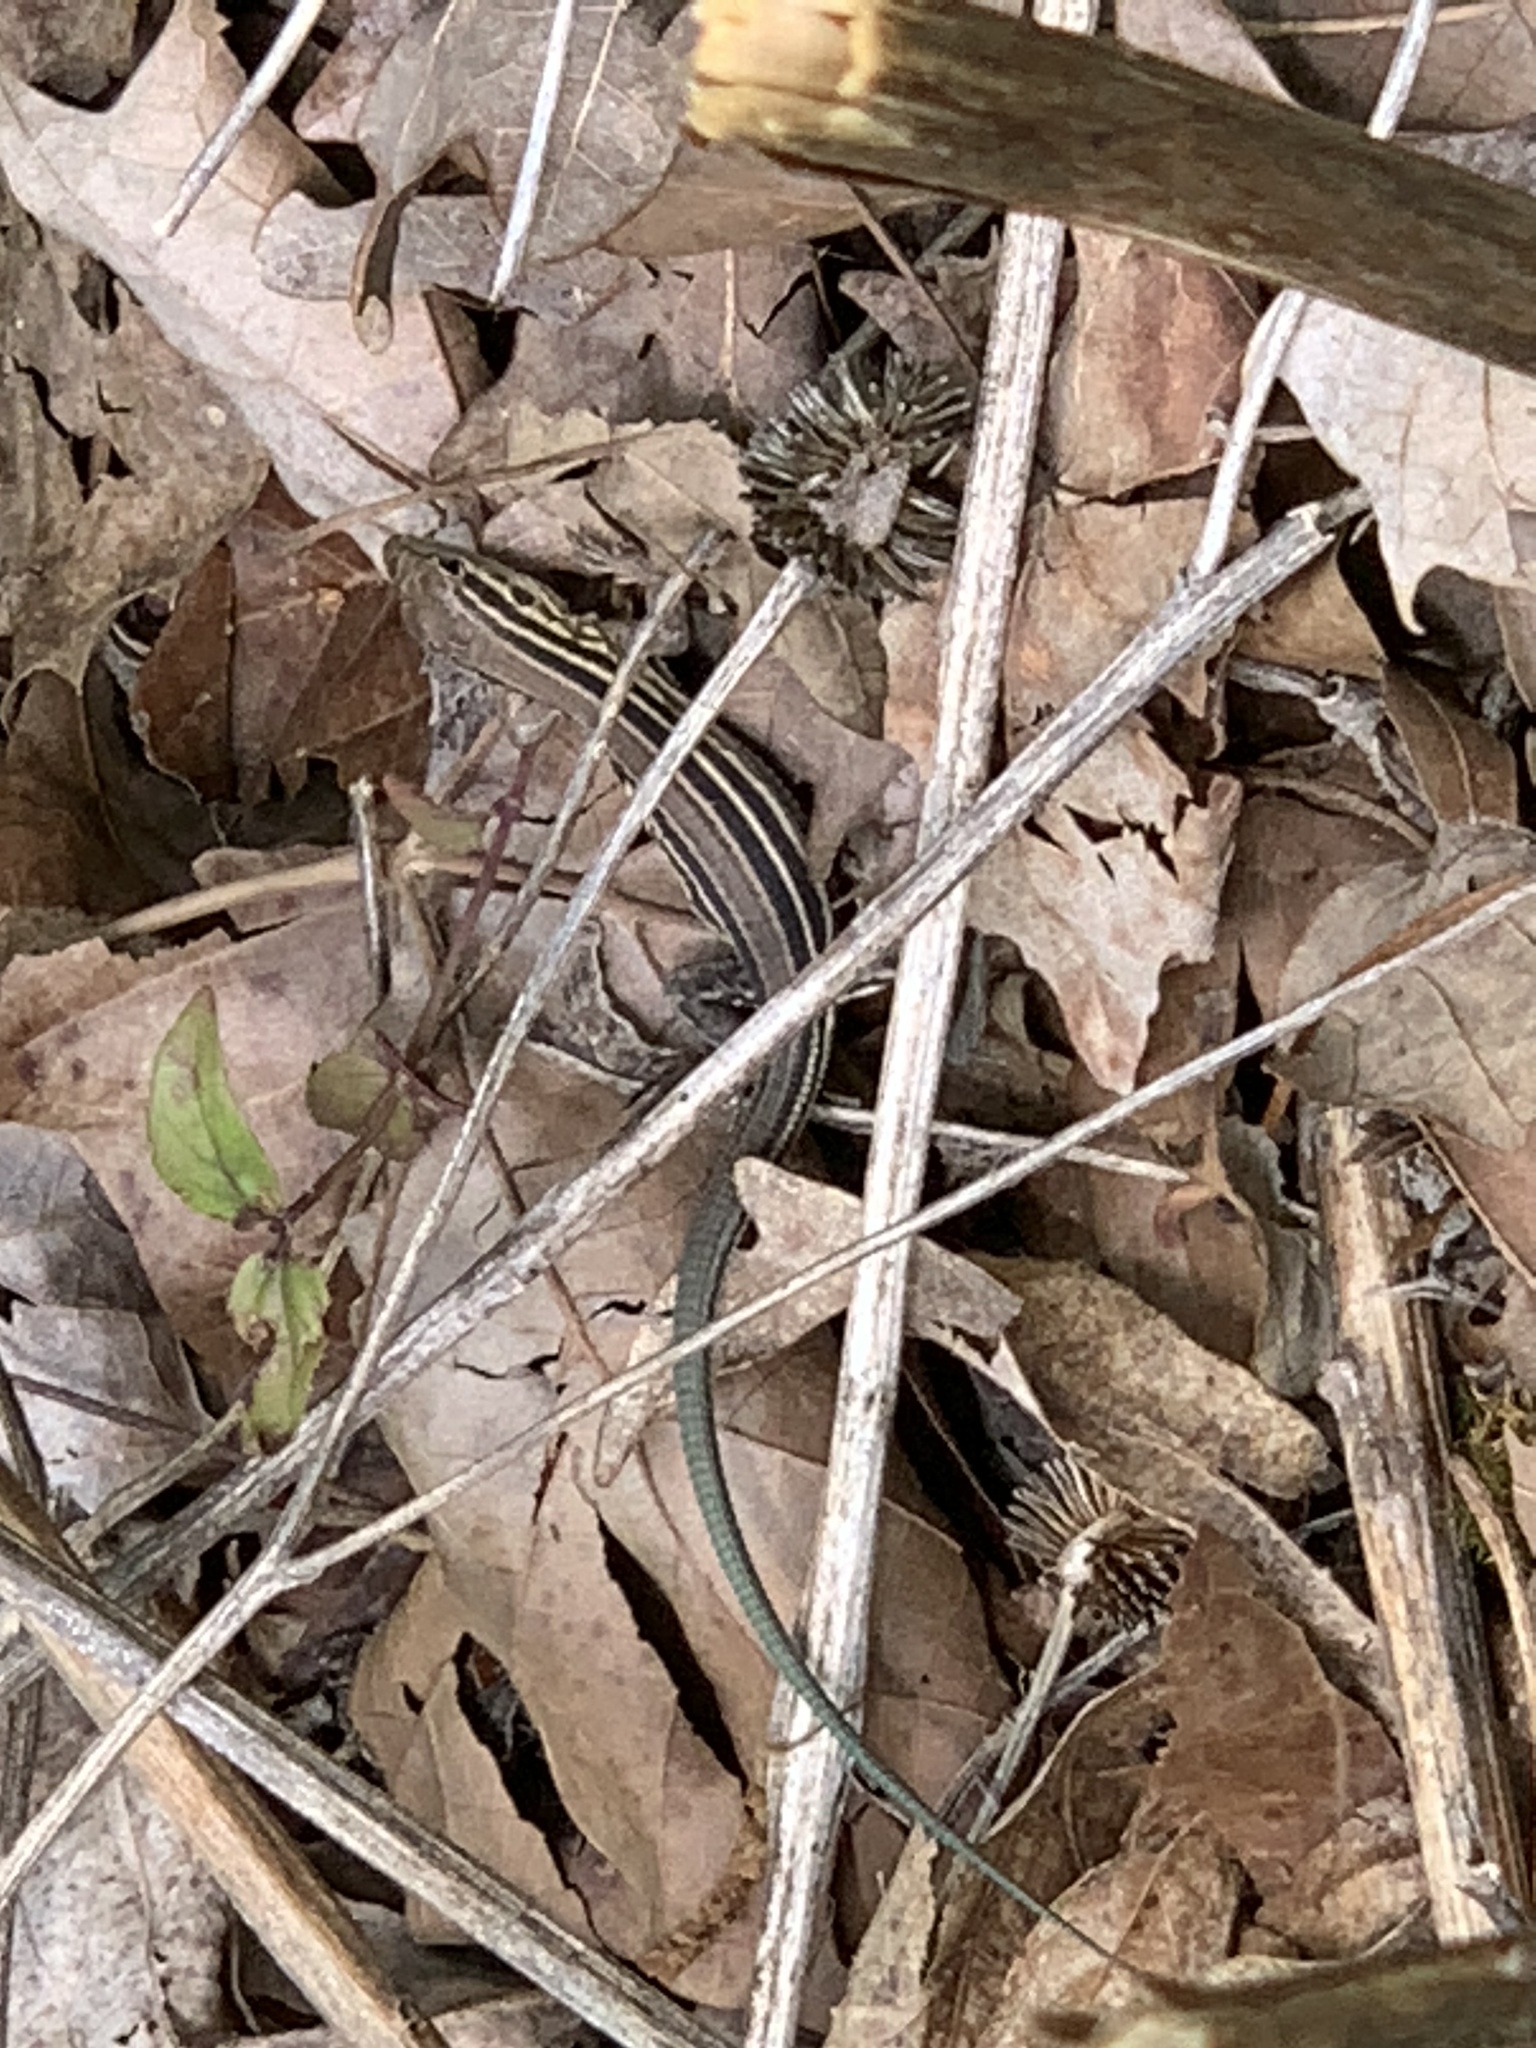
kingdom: Animalia
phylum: Chordata
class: Squamata
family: Teiidae
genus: Aspidoscelis
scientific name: Aspidoscelis sexlineatus
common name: Six-lined racerunner
